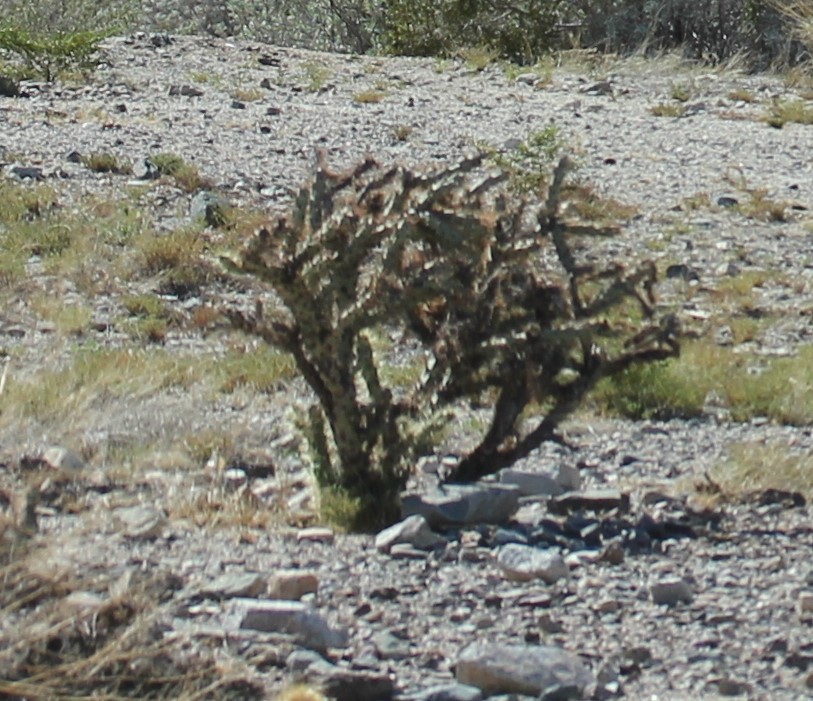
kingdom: Plantae
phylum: Tracheophyta
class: Magnoliopsida
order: Caryophyllales
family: Cactaceae
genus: Cylindropuntia
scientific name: Cylindropuntia acanthocarpa
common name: Buckhorn cholla
